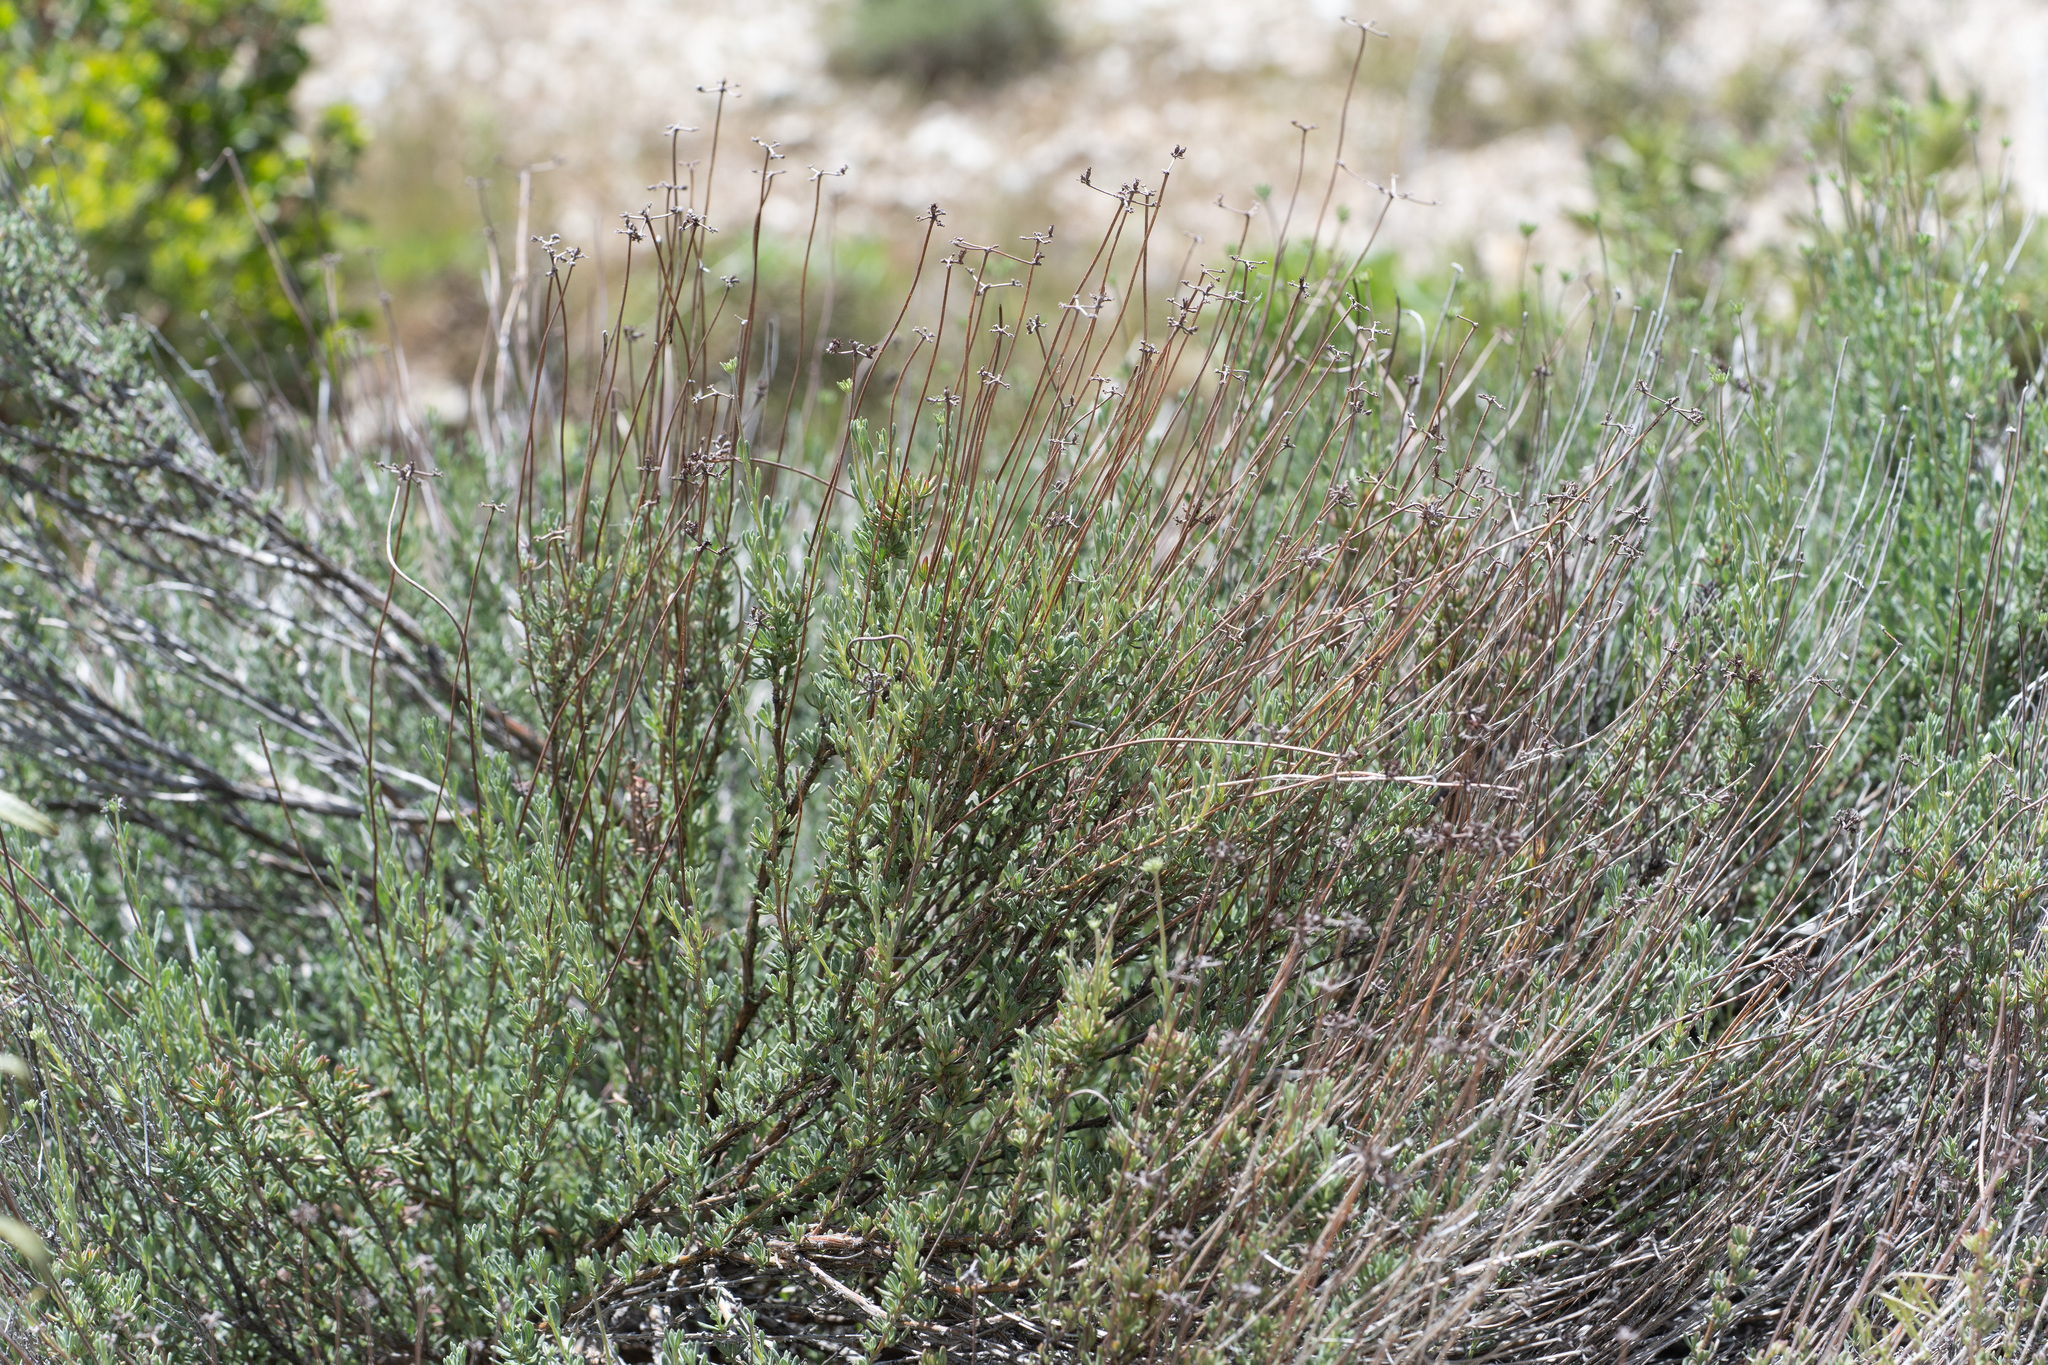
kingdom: Plantae
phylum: Tracheophyta
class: Magnoliopsida
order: Caryophyllales
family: Polygonaceae
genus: Eriogonum
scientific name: Eriogonum fasciculatum
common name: California wild buckwheat
